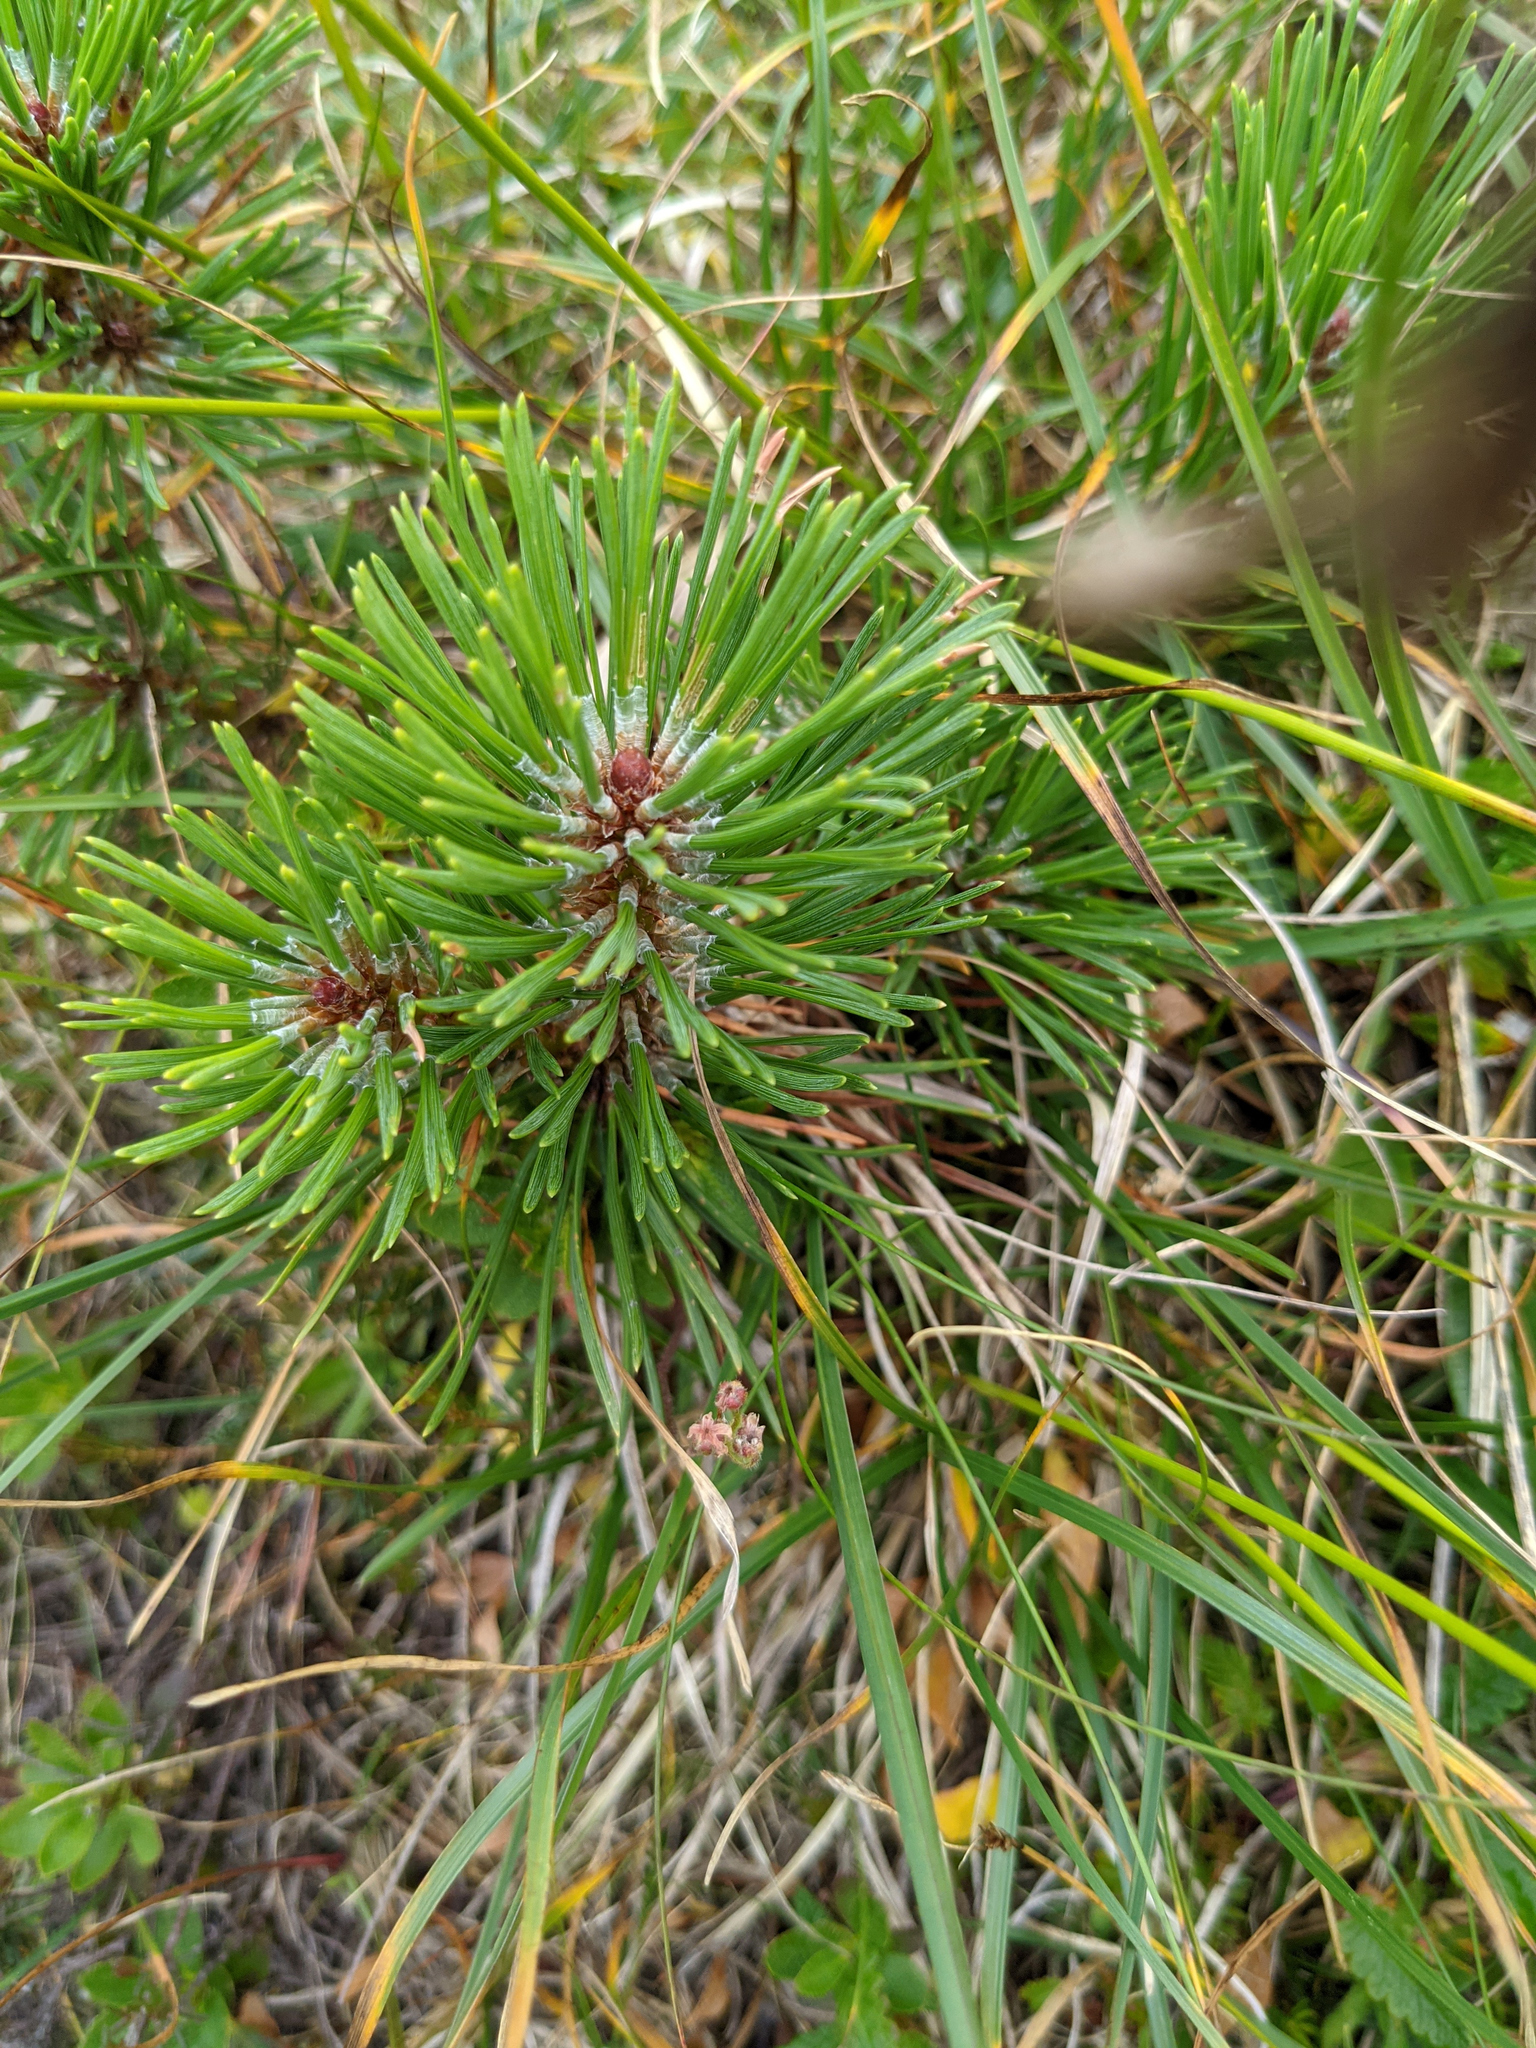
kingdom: Plantae
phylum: Tracheophyta
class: Pinopsida
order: Pinales
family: Pinaceae
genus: Pinus
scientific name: Pinus mugo
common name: Mugo pine
